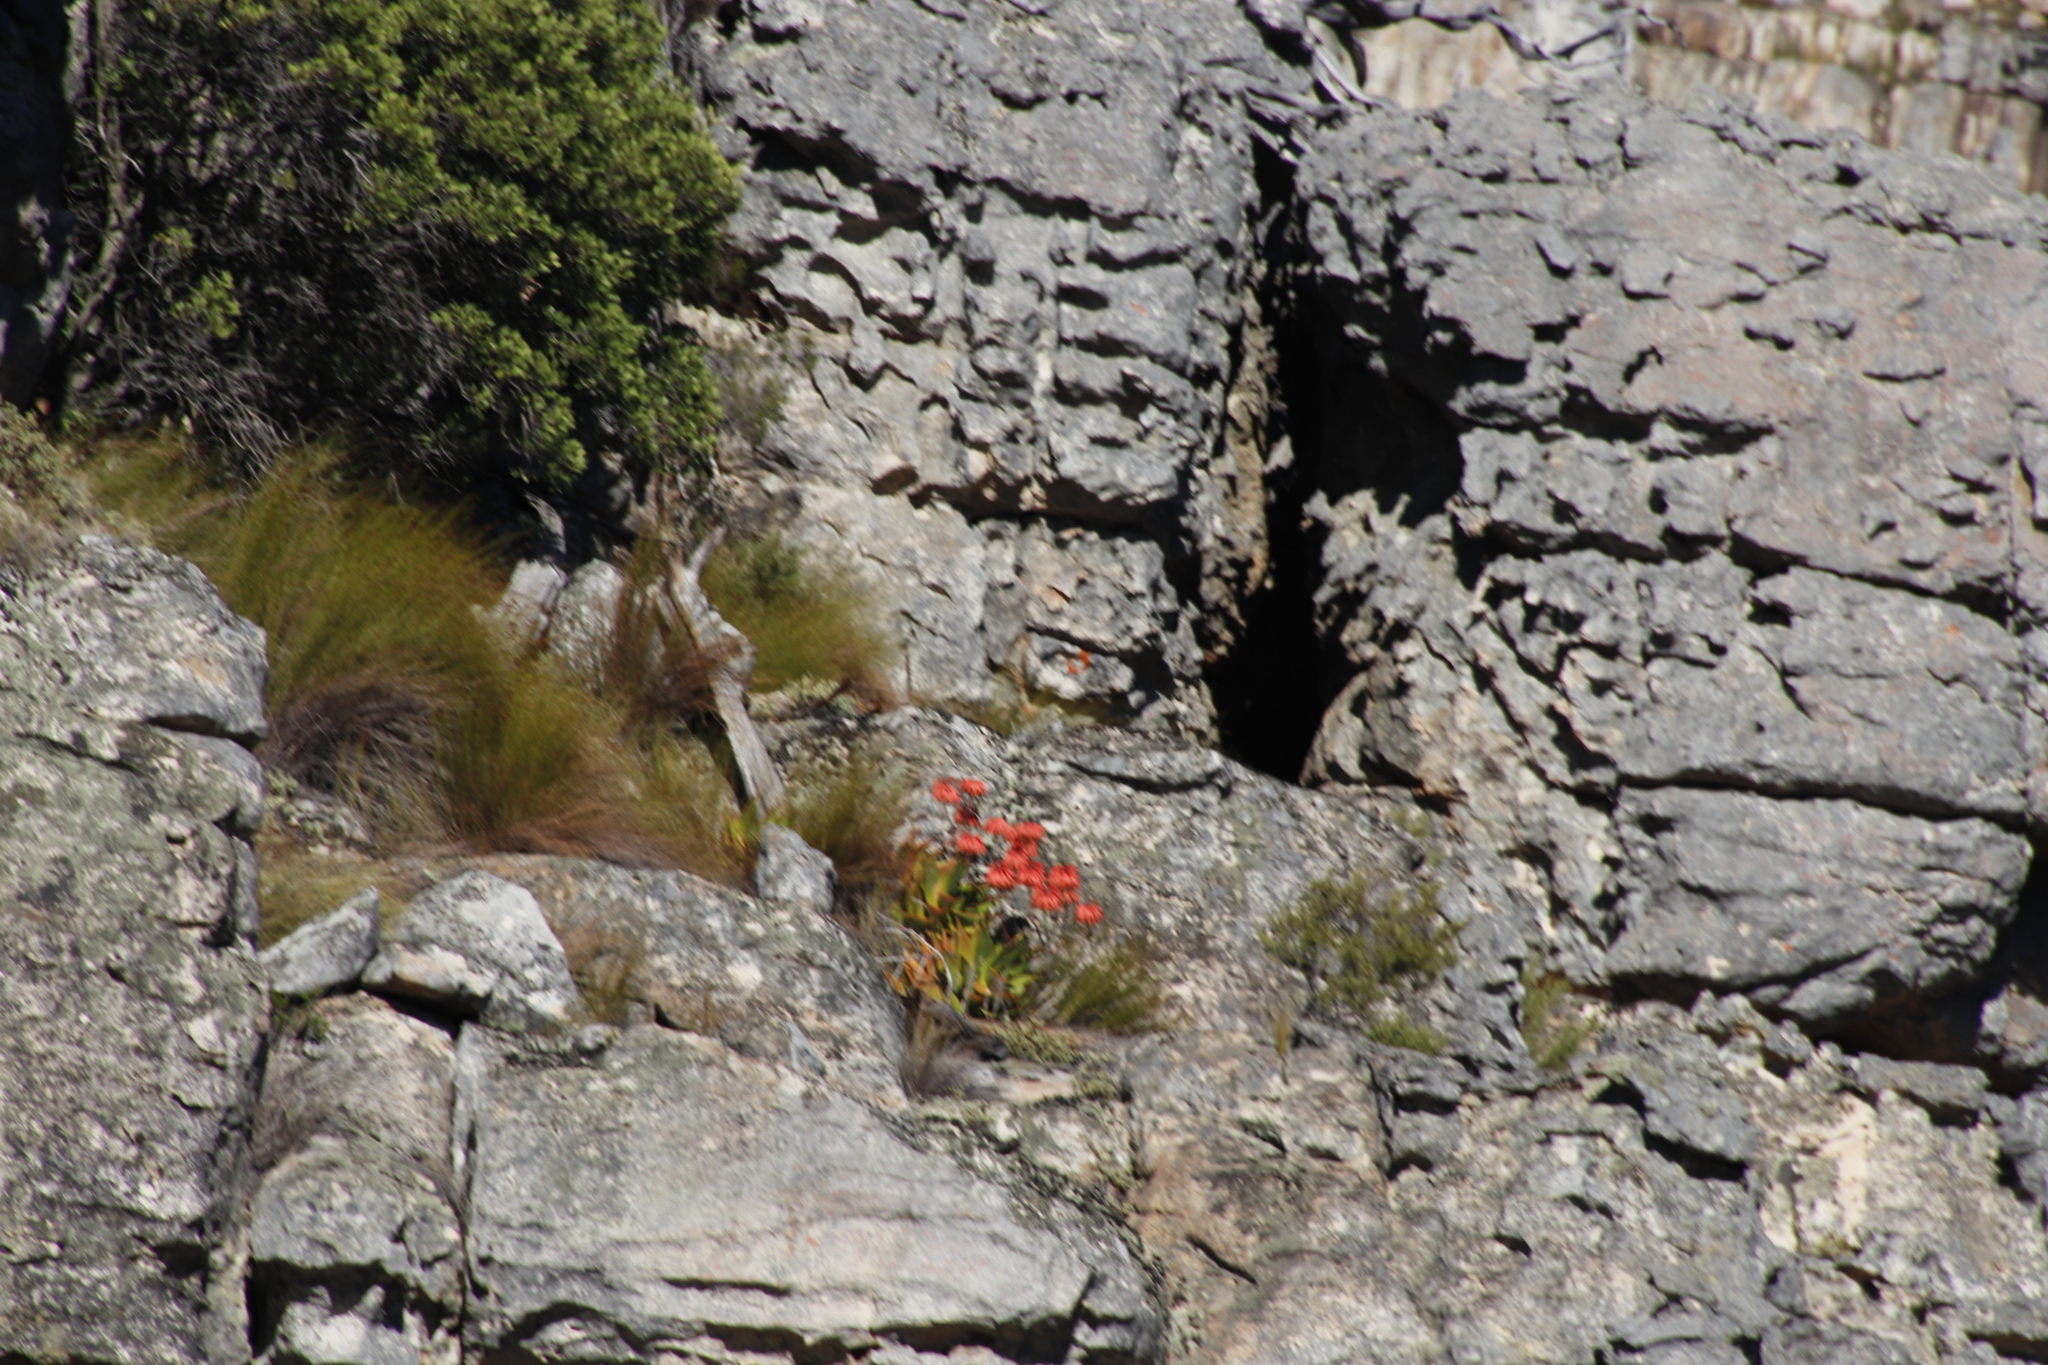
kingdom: Plantae
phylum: Tracheophyta
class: Liliopsida
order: Asparagales
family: Asphodelaceae
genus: Aloe
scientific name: Aloe perfoliata
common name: Mitra aloe
